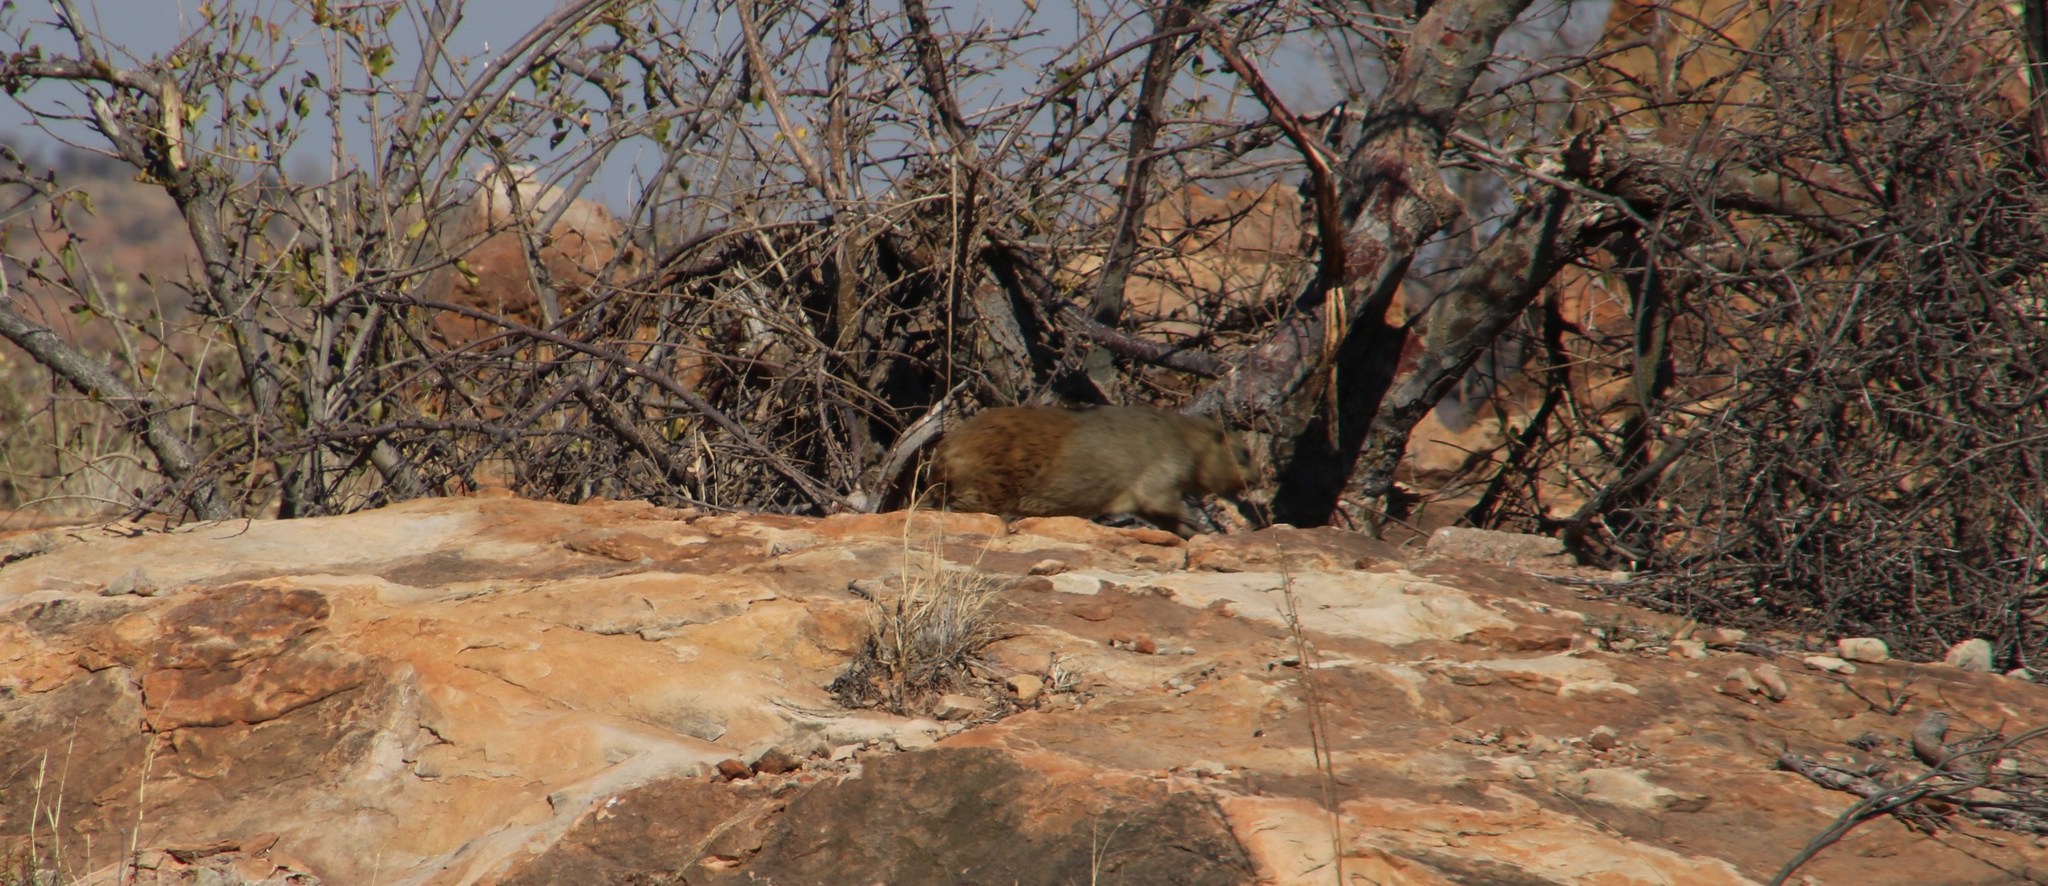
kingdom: Animalia
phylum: Chordata
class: Mammalia
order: Hyracoidea
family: Procaviidae
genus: Procavia
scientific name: Procavia capensis
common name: Rock hyrax
